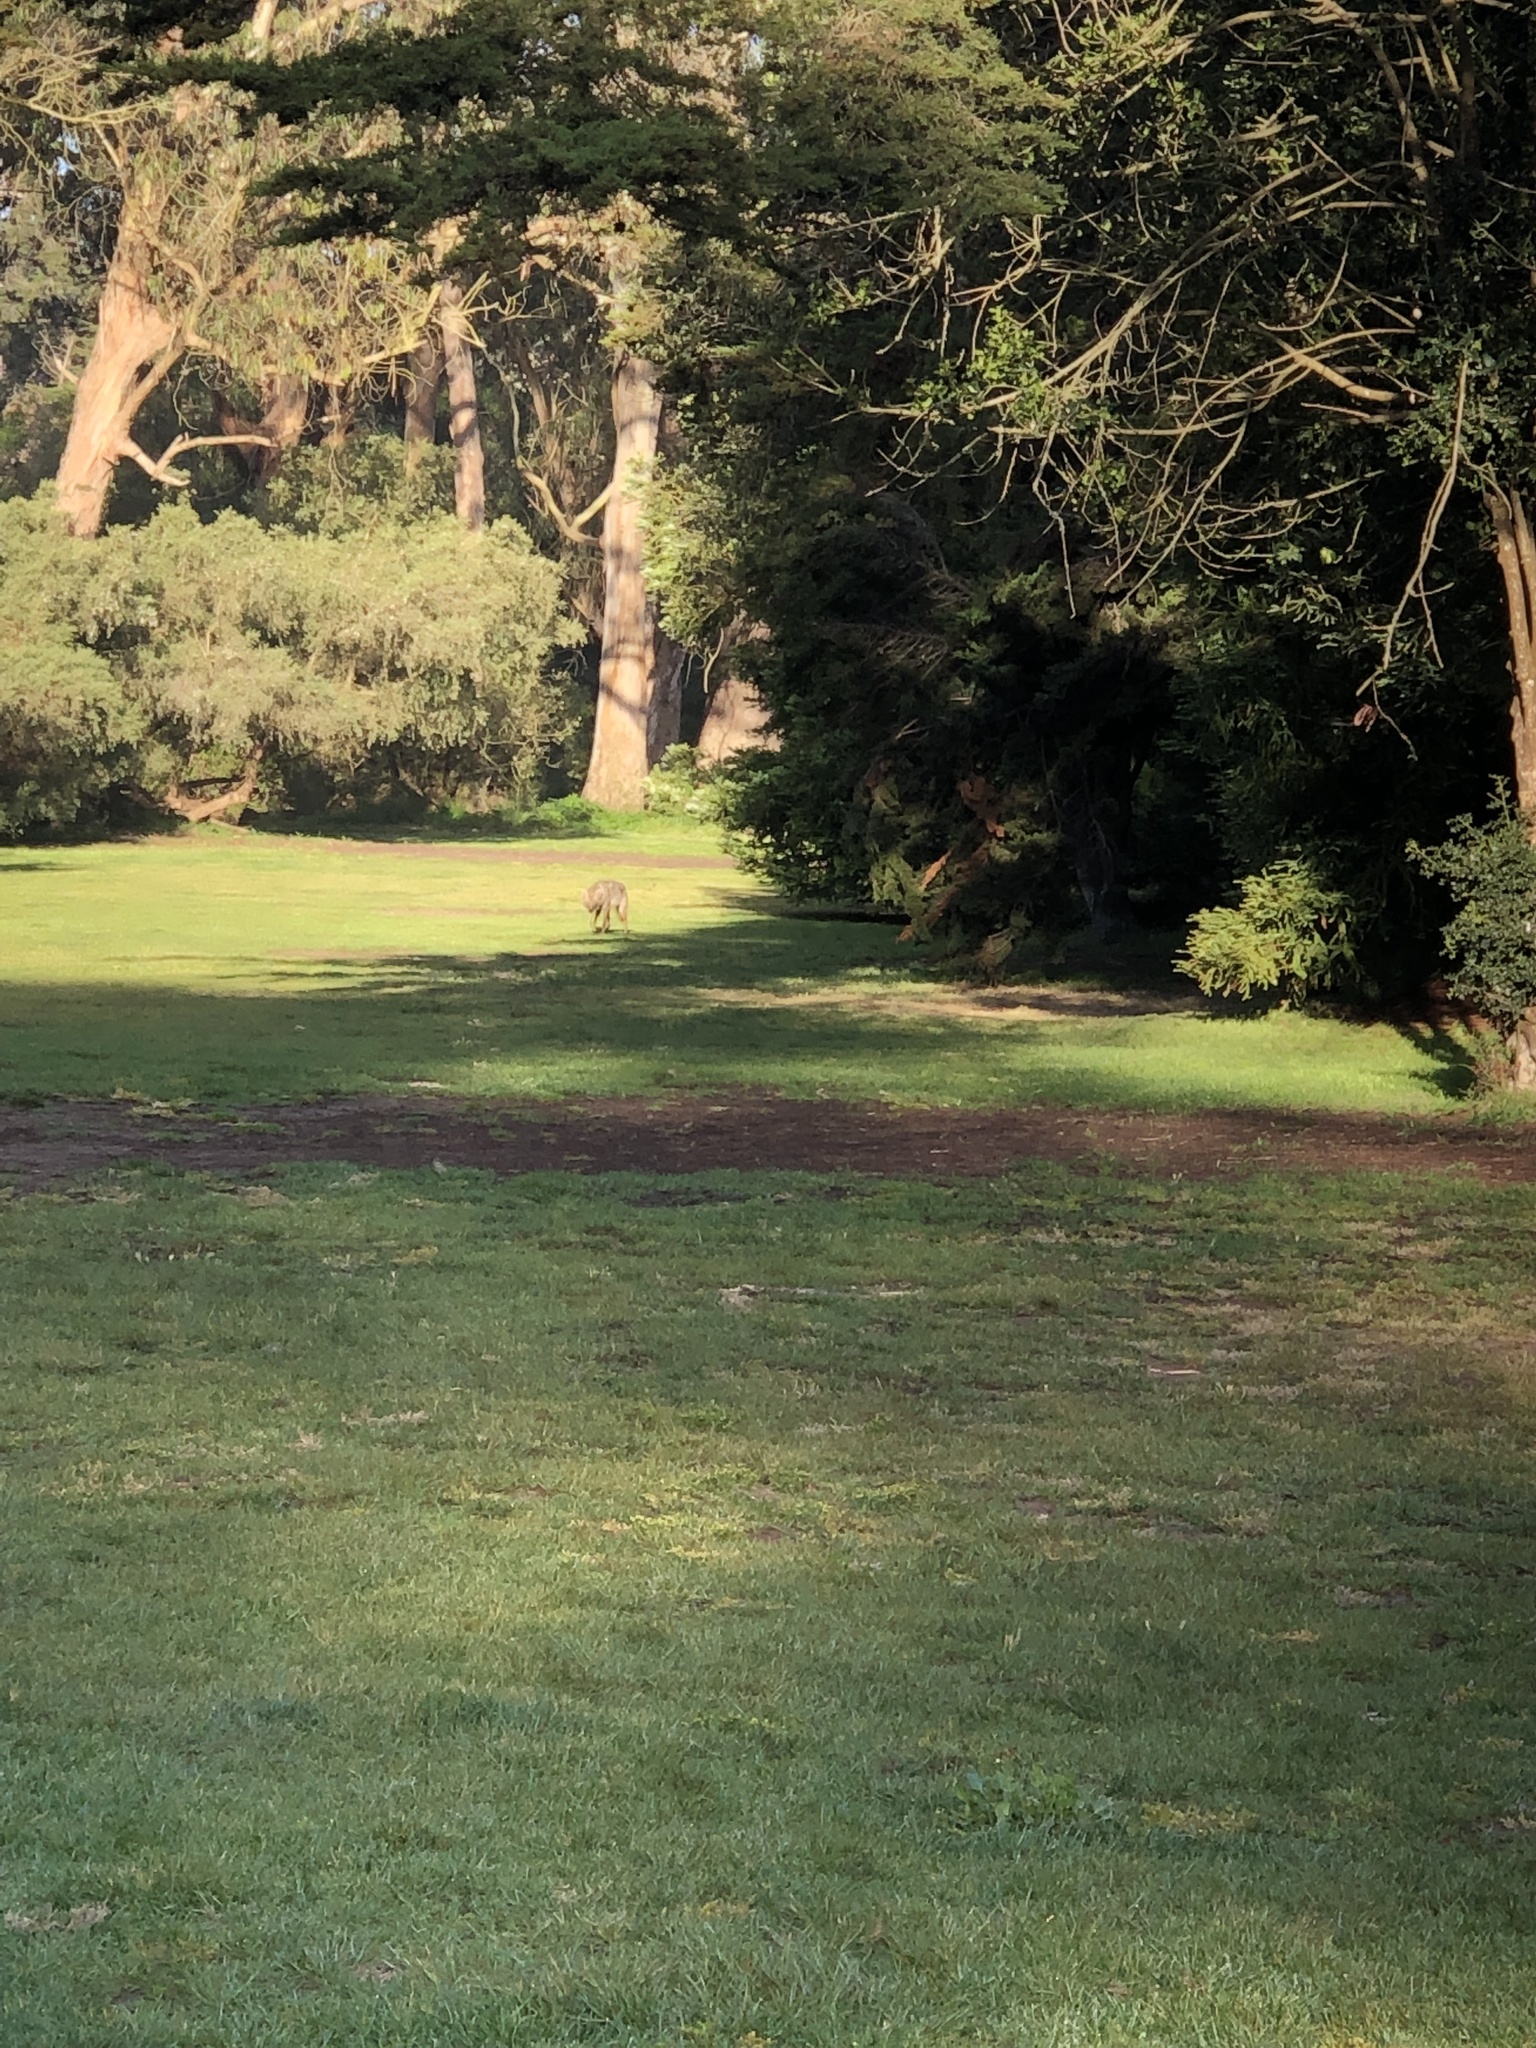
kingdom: Animalia
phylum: Chordata
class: Mammalia
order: Carnivora
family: Canidae
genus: Canis
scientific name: Canis latrans
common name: Coyote
